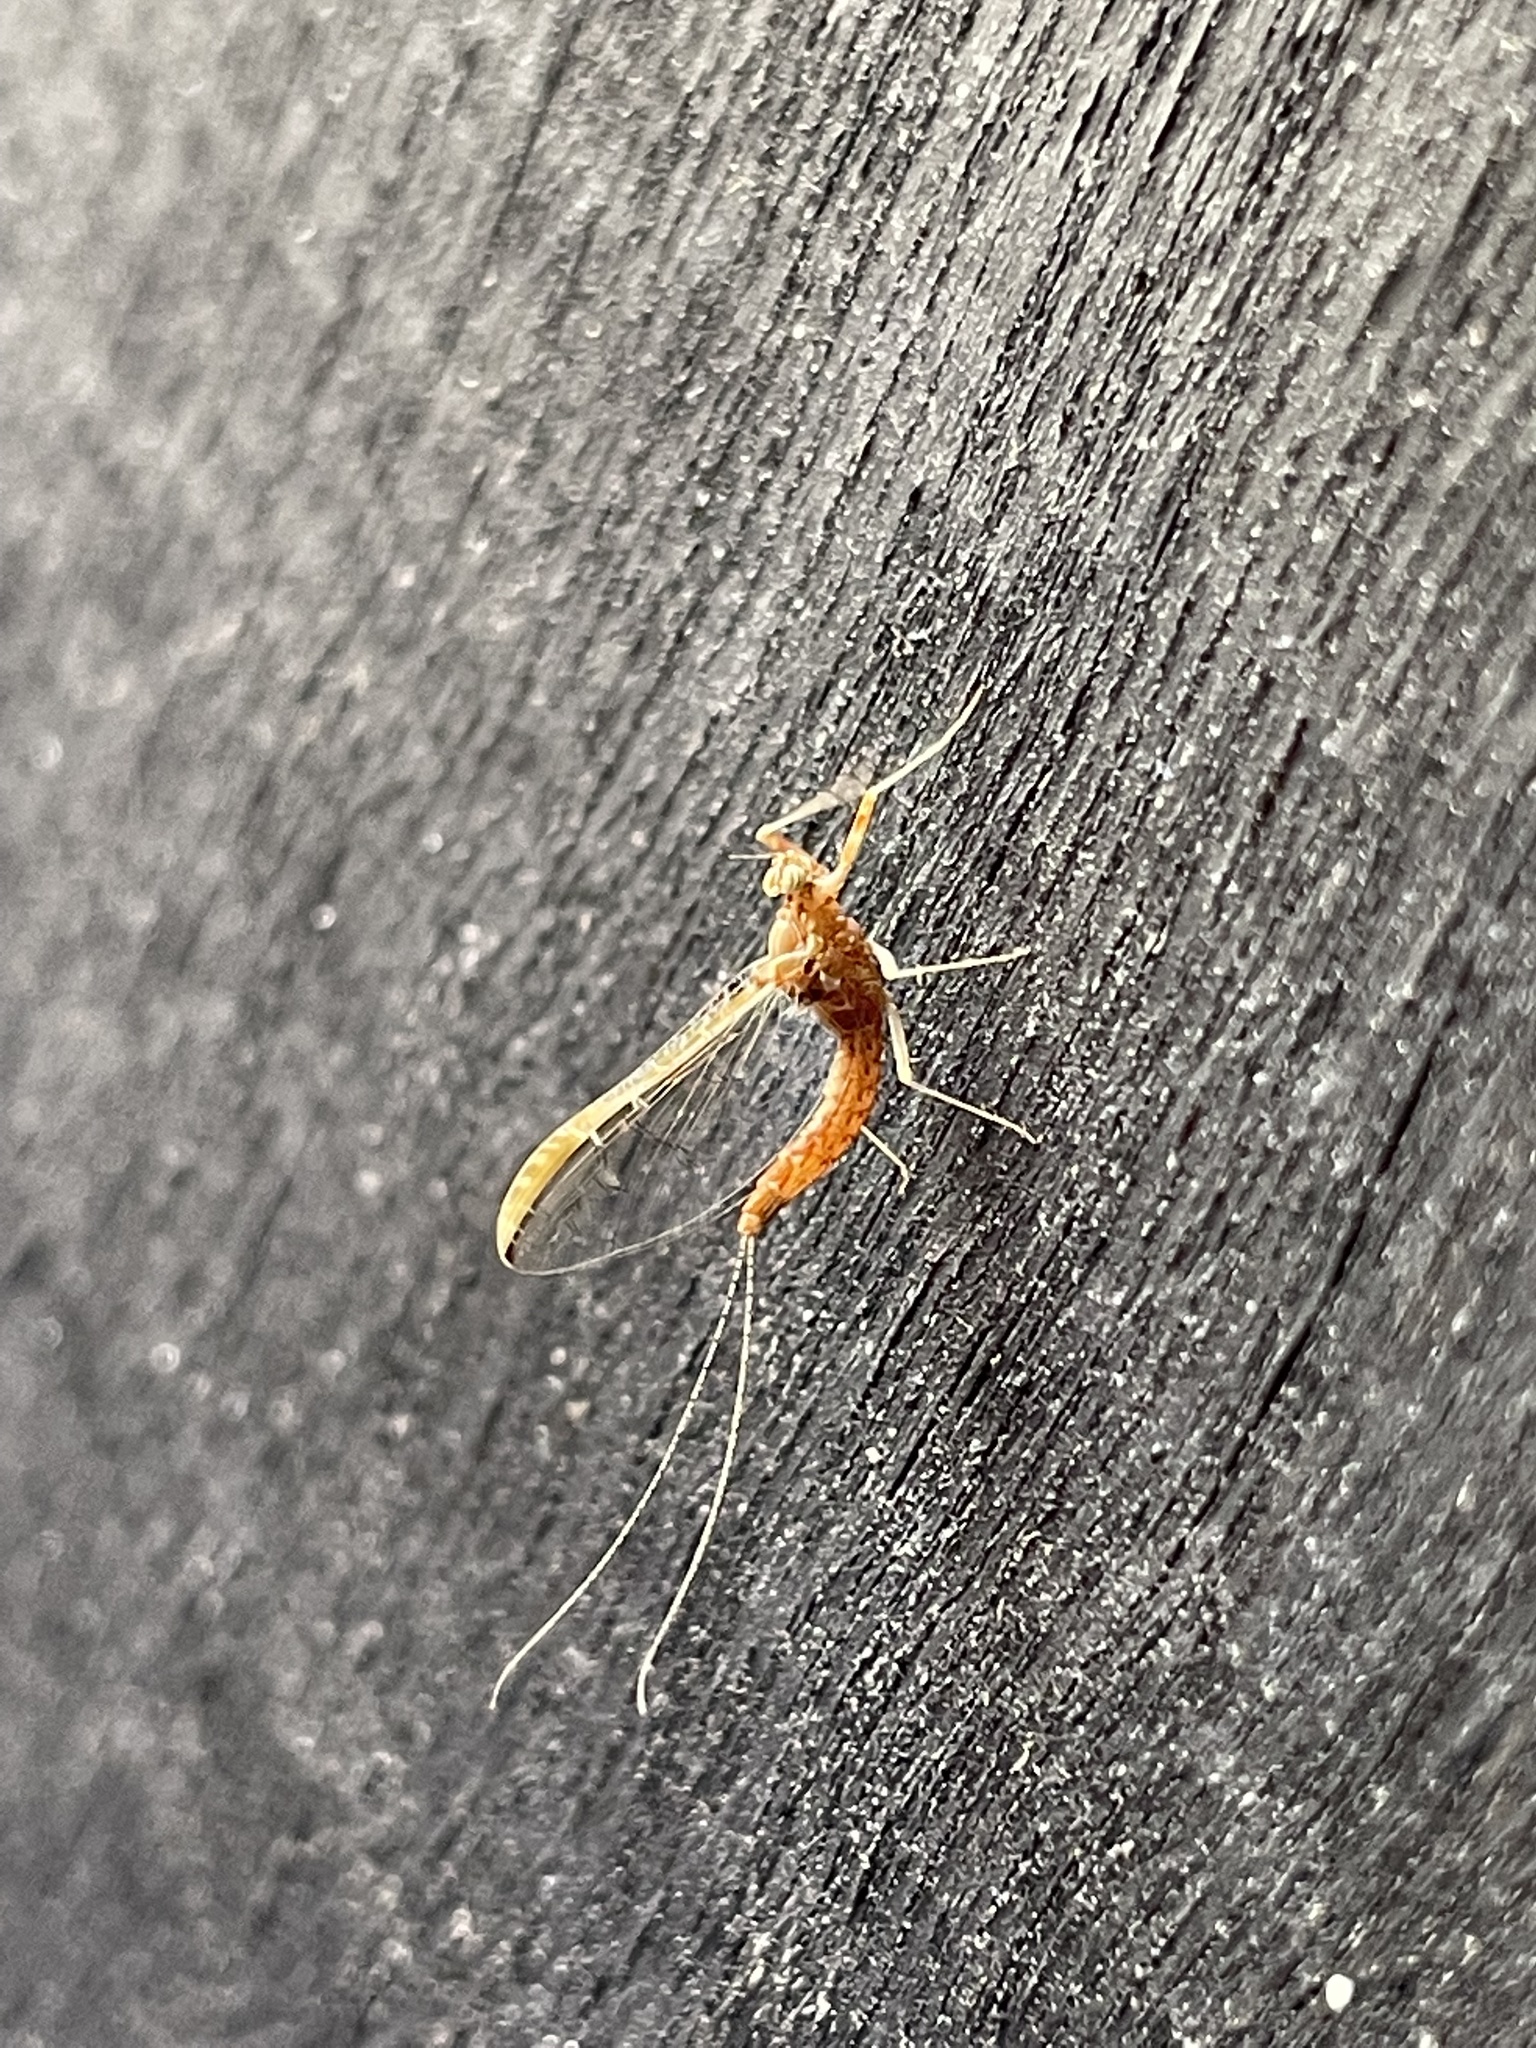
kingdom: Animalia
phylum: Arthropoda
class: Insecta
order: Ephemeroptera
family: Baetidae
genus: Cloeon
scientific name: Cloeon dipterum
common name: Pond olive
